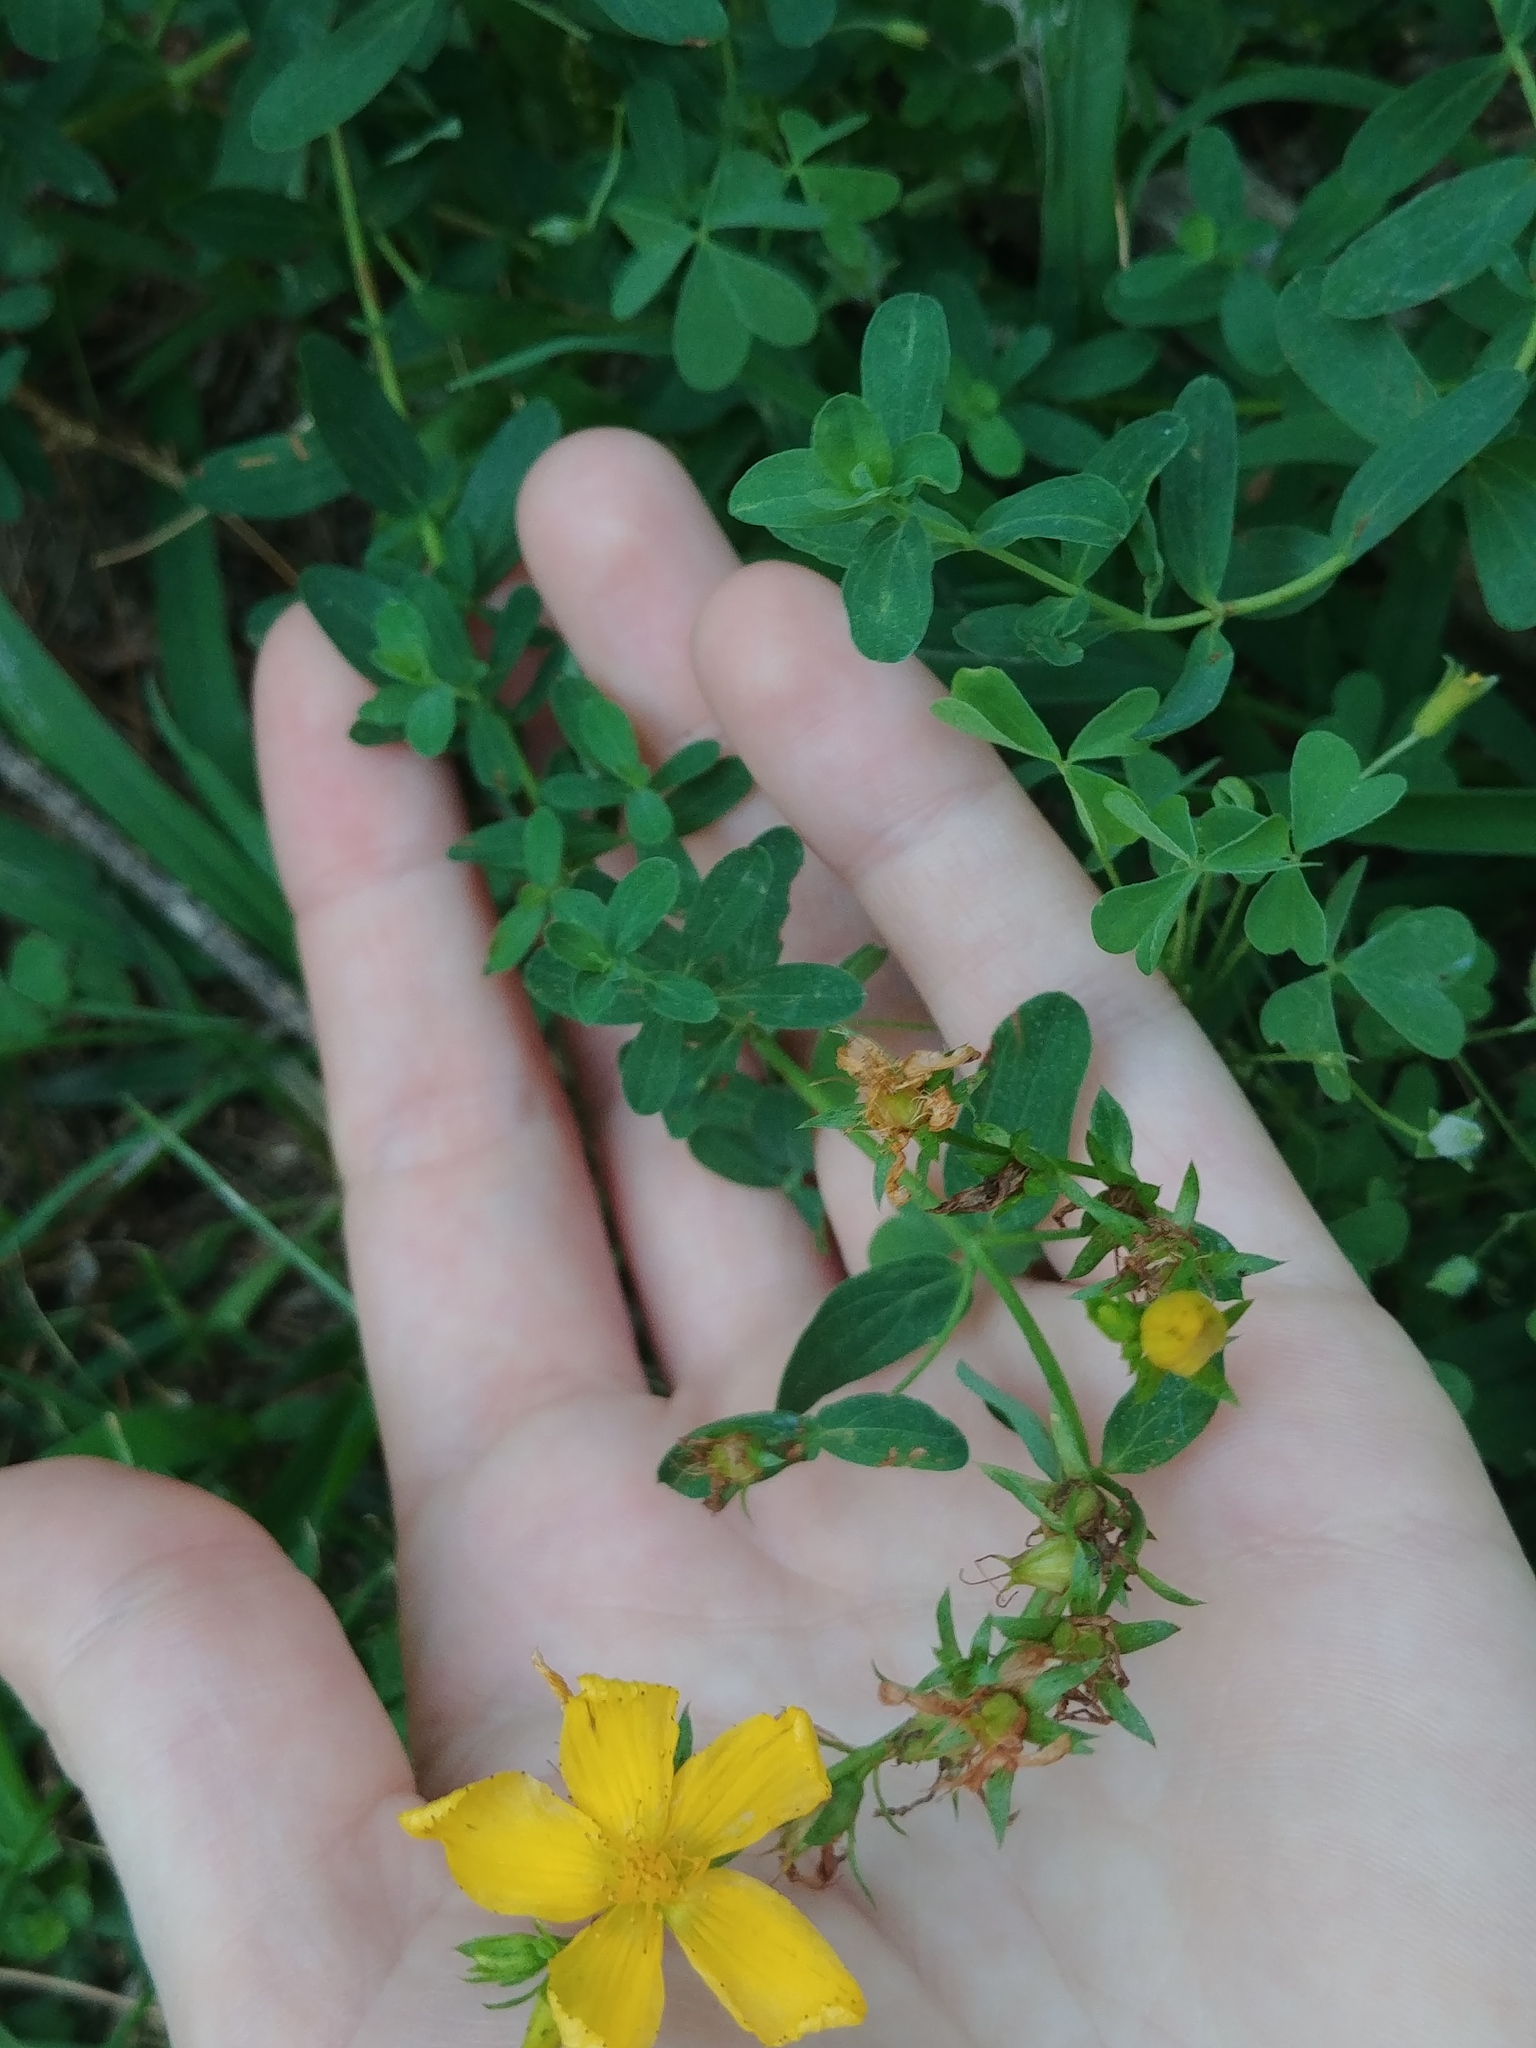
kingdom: Plantae
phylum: Tracheophyta
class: Magnoliopsida
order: Malpighiales
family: Hypericaceae
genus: Hypericum
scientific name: Hypericum perforatum
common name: Common st. johnswort
